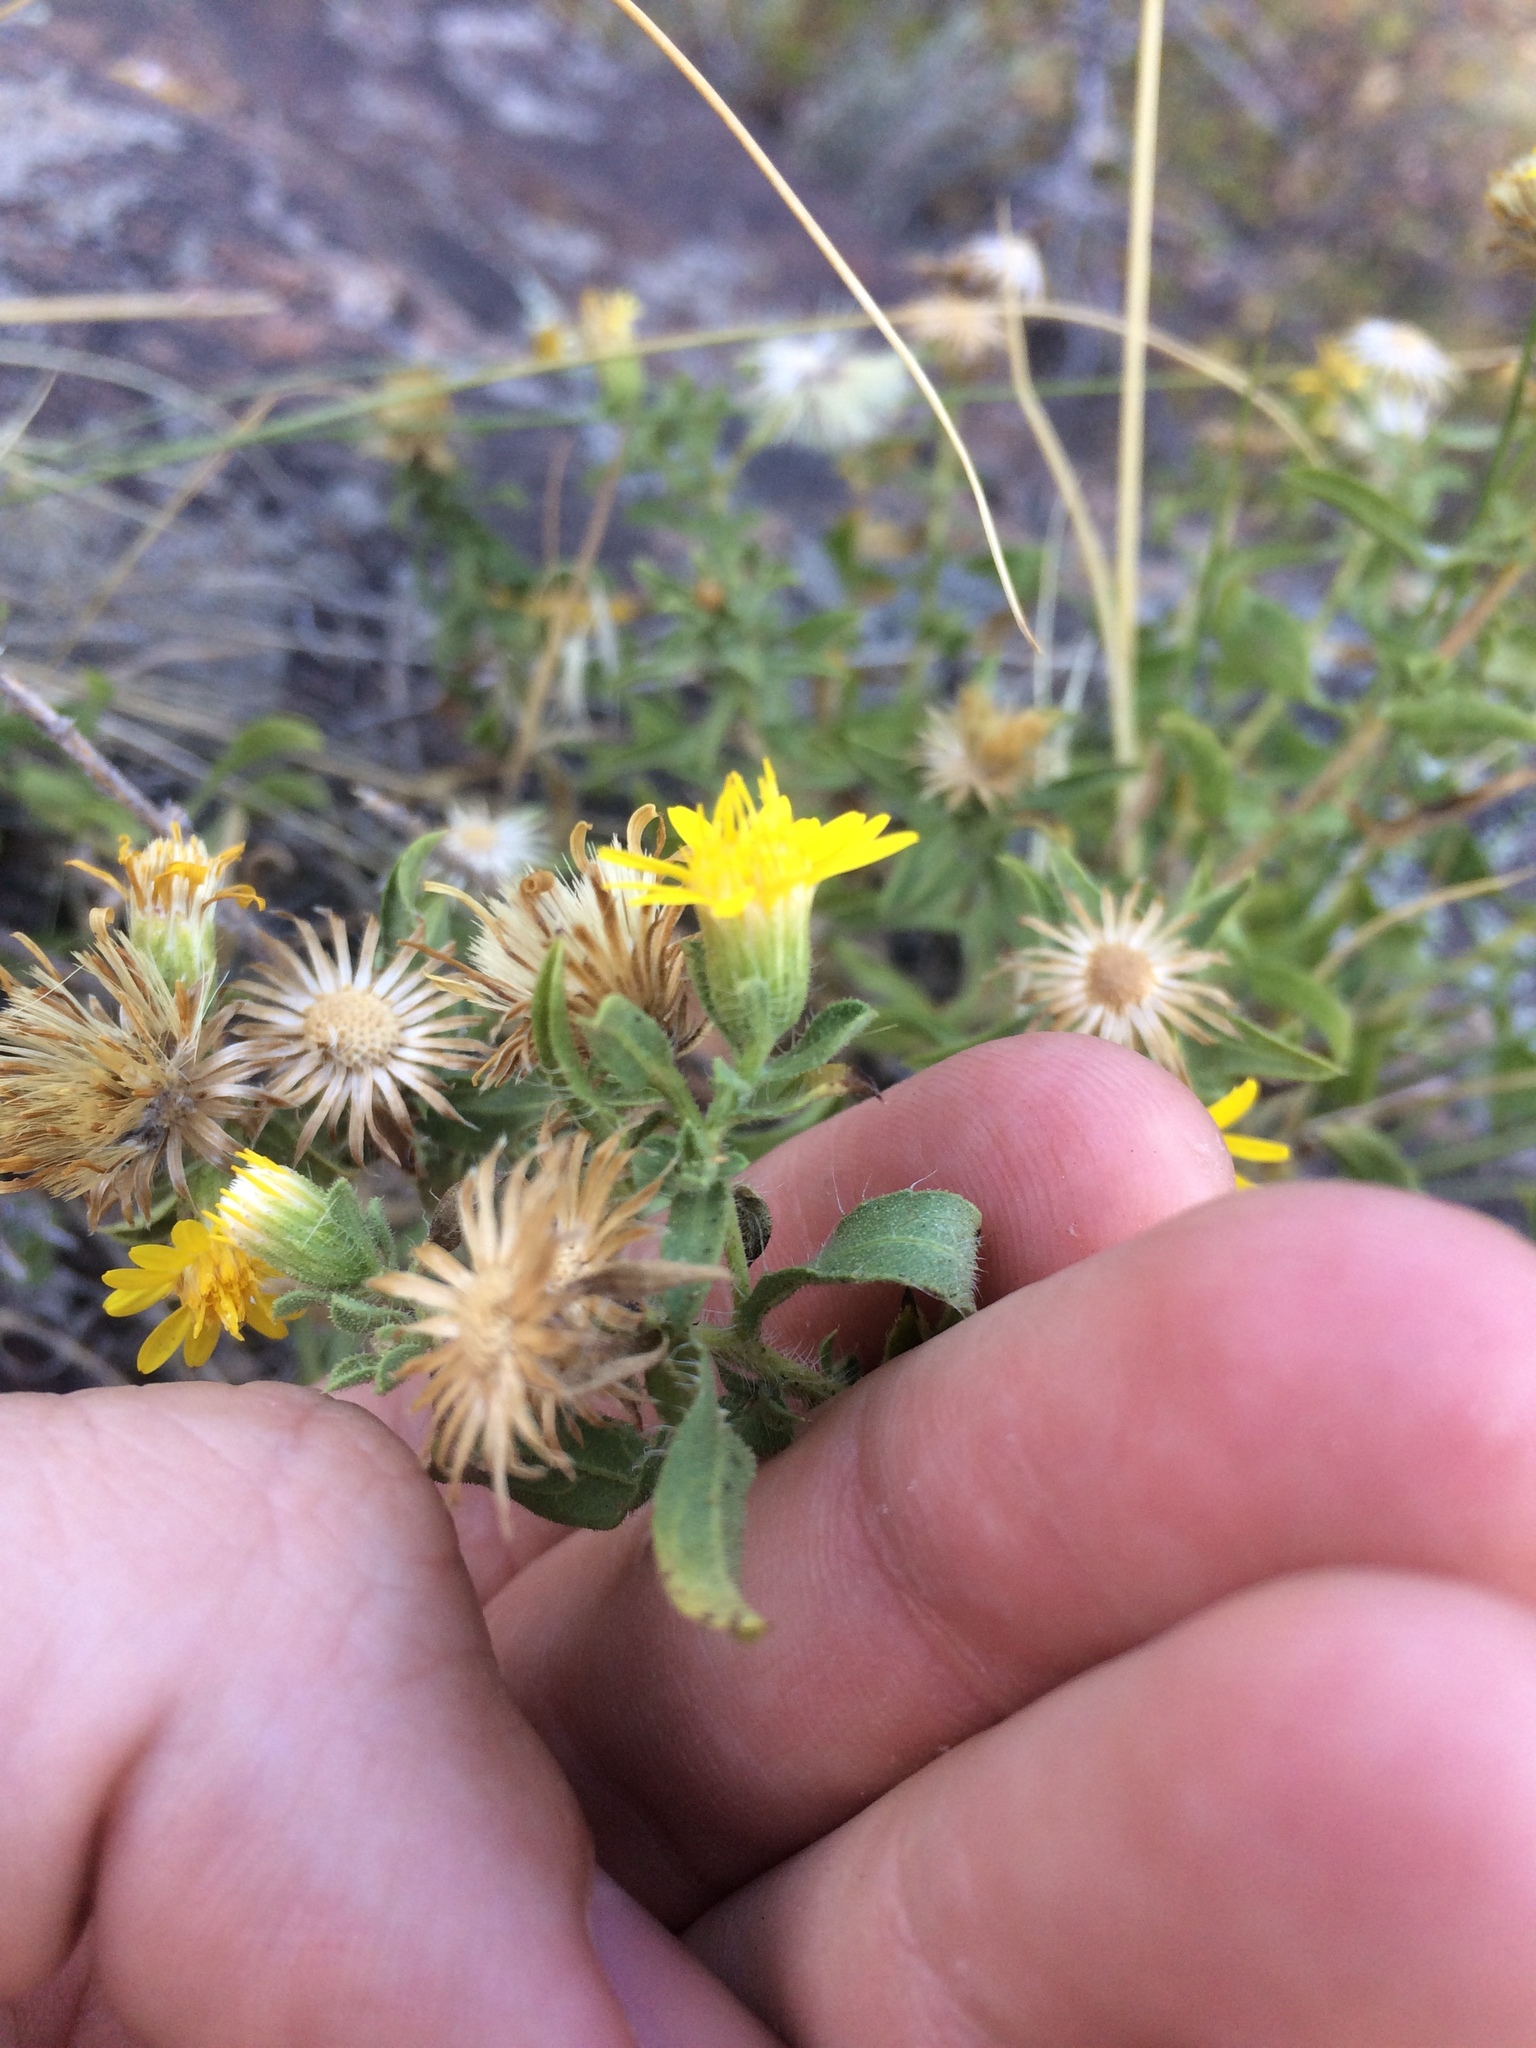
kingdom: Plantae
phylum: Tracheophyta
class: Magnoliopsida
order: Asterales
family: Asteraceae
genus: Heterotheca
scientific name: Heterotheca hirsuta
